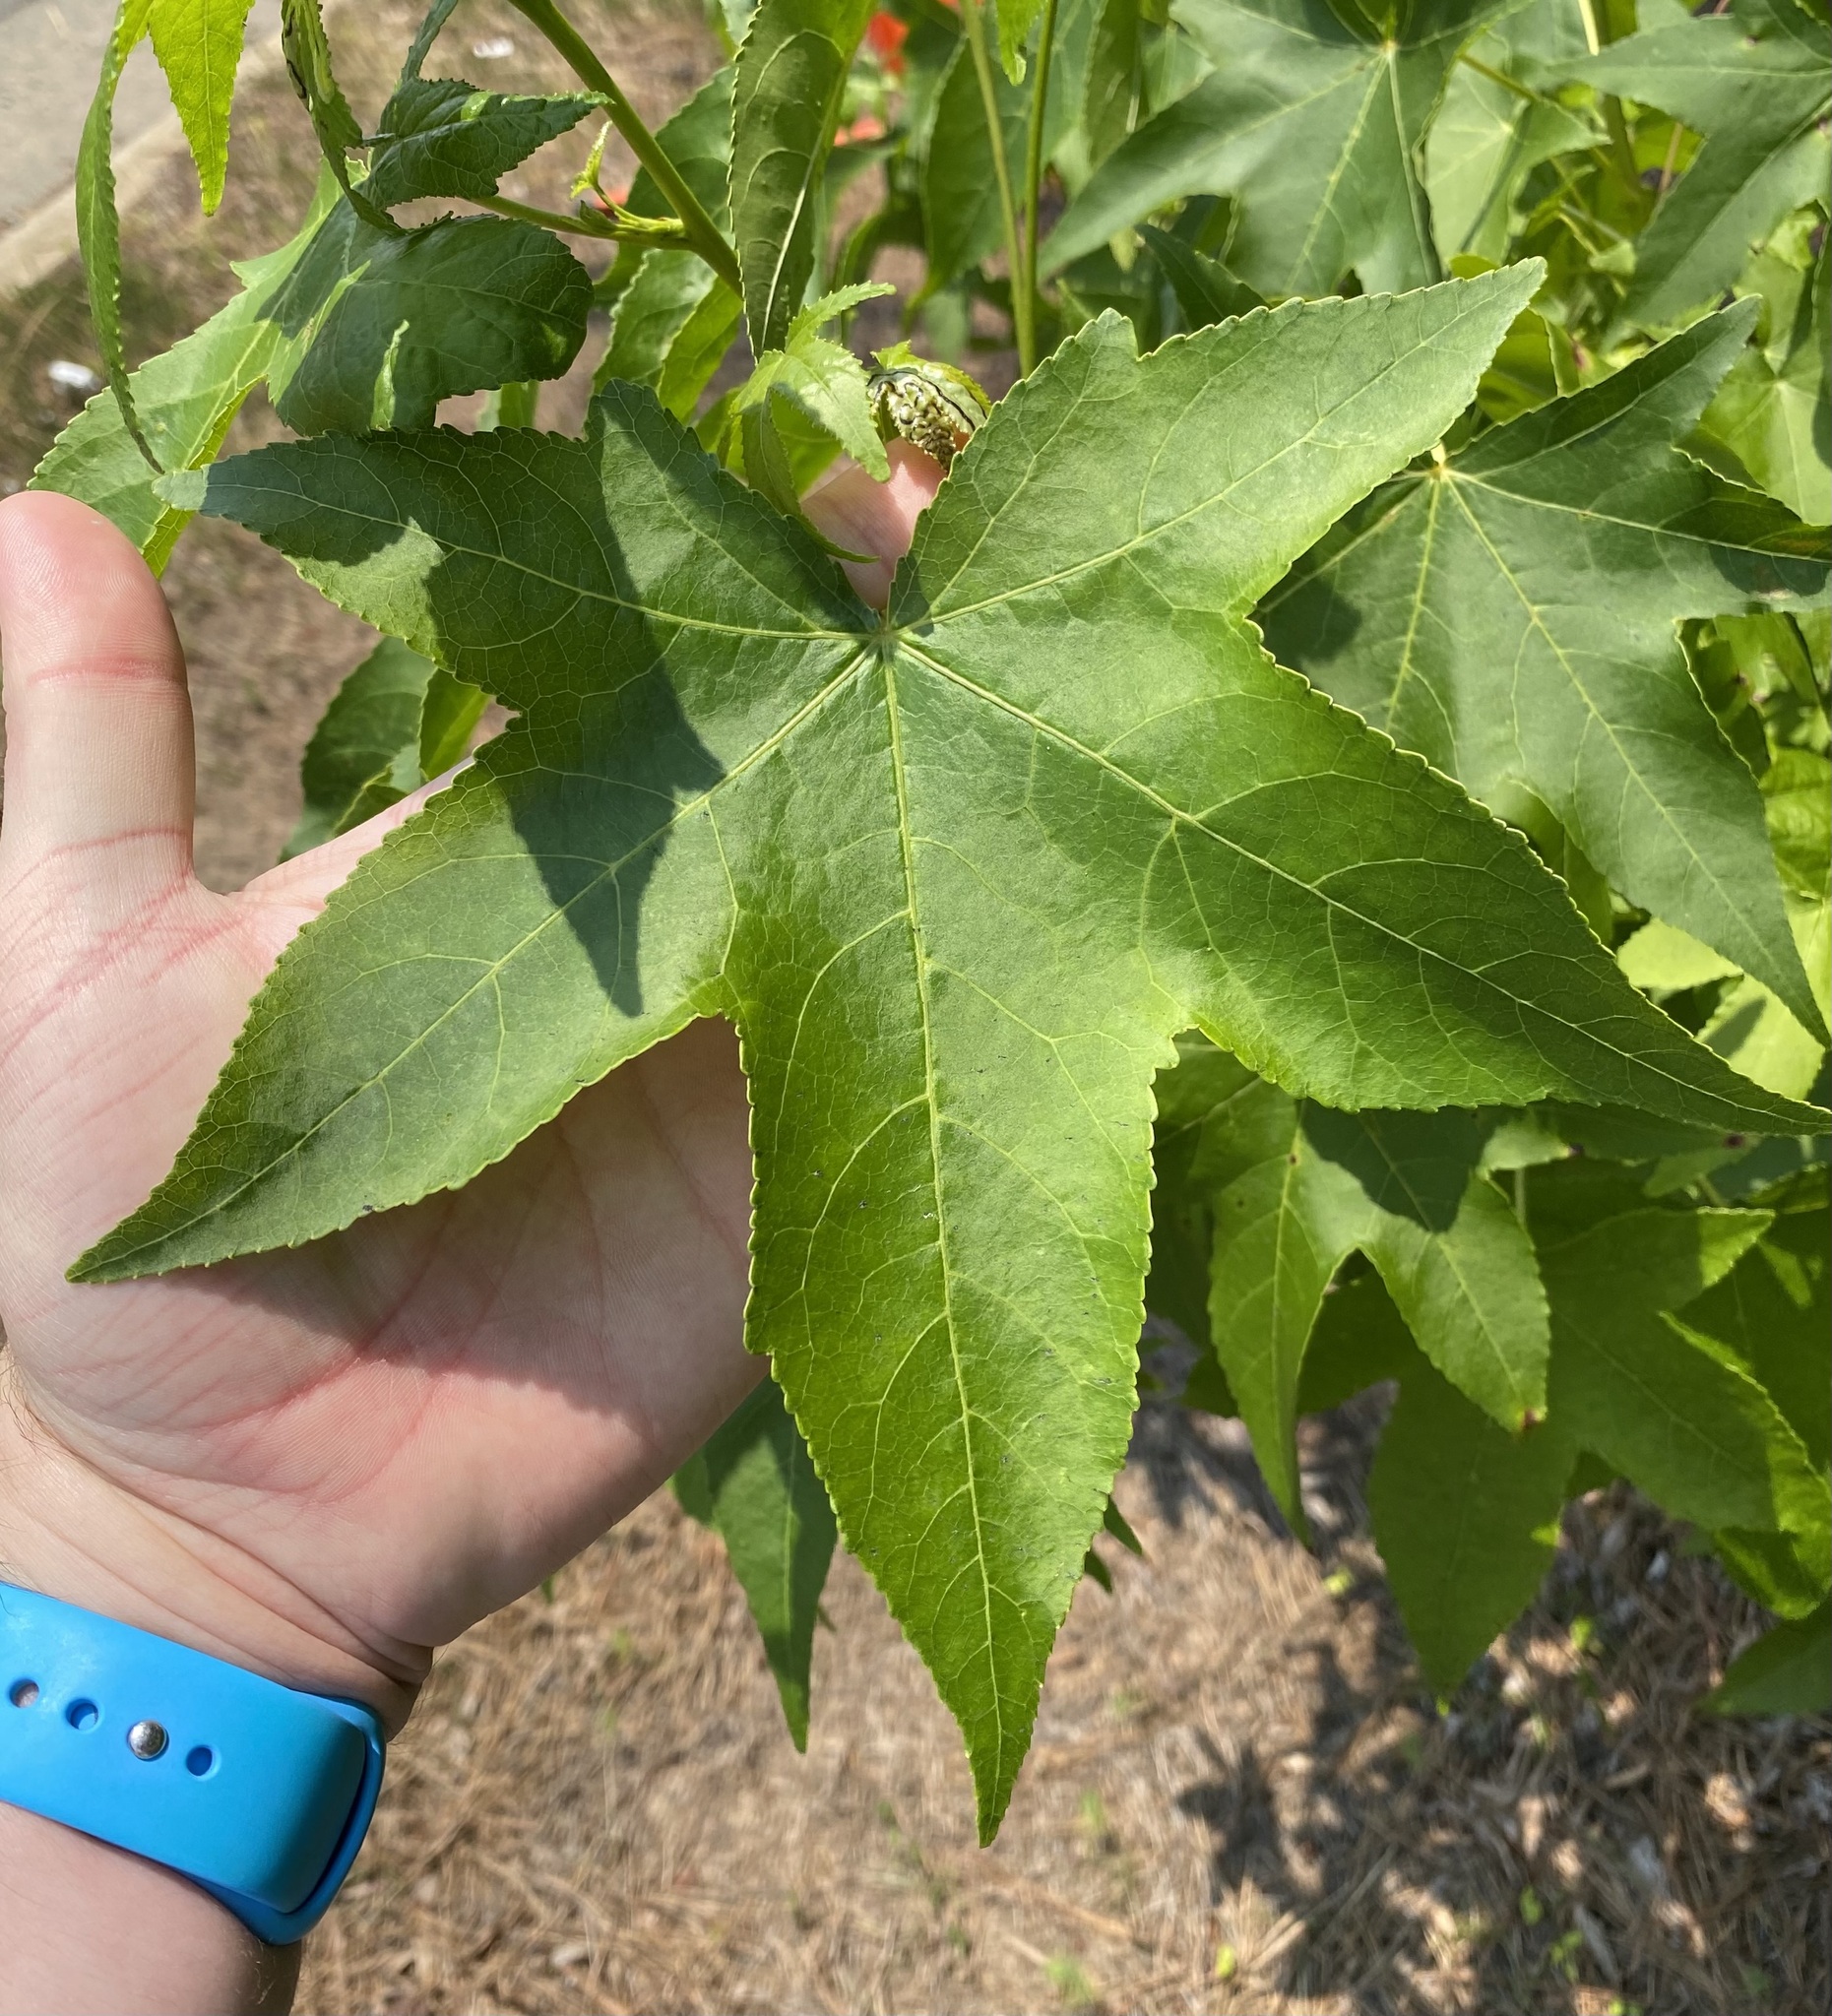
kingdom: Plantae
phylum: Tracheophyta
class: Magnoliopsida
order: Saxifragales
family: Altingiaceae
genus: Liquidambar
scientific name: Liquidambar styraciflua
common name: Sweet gum
